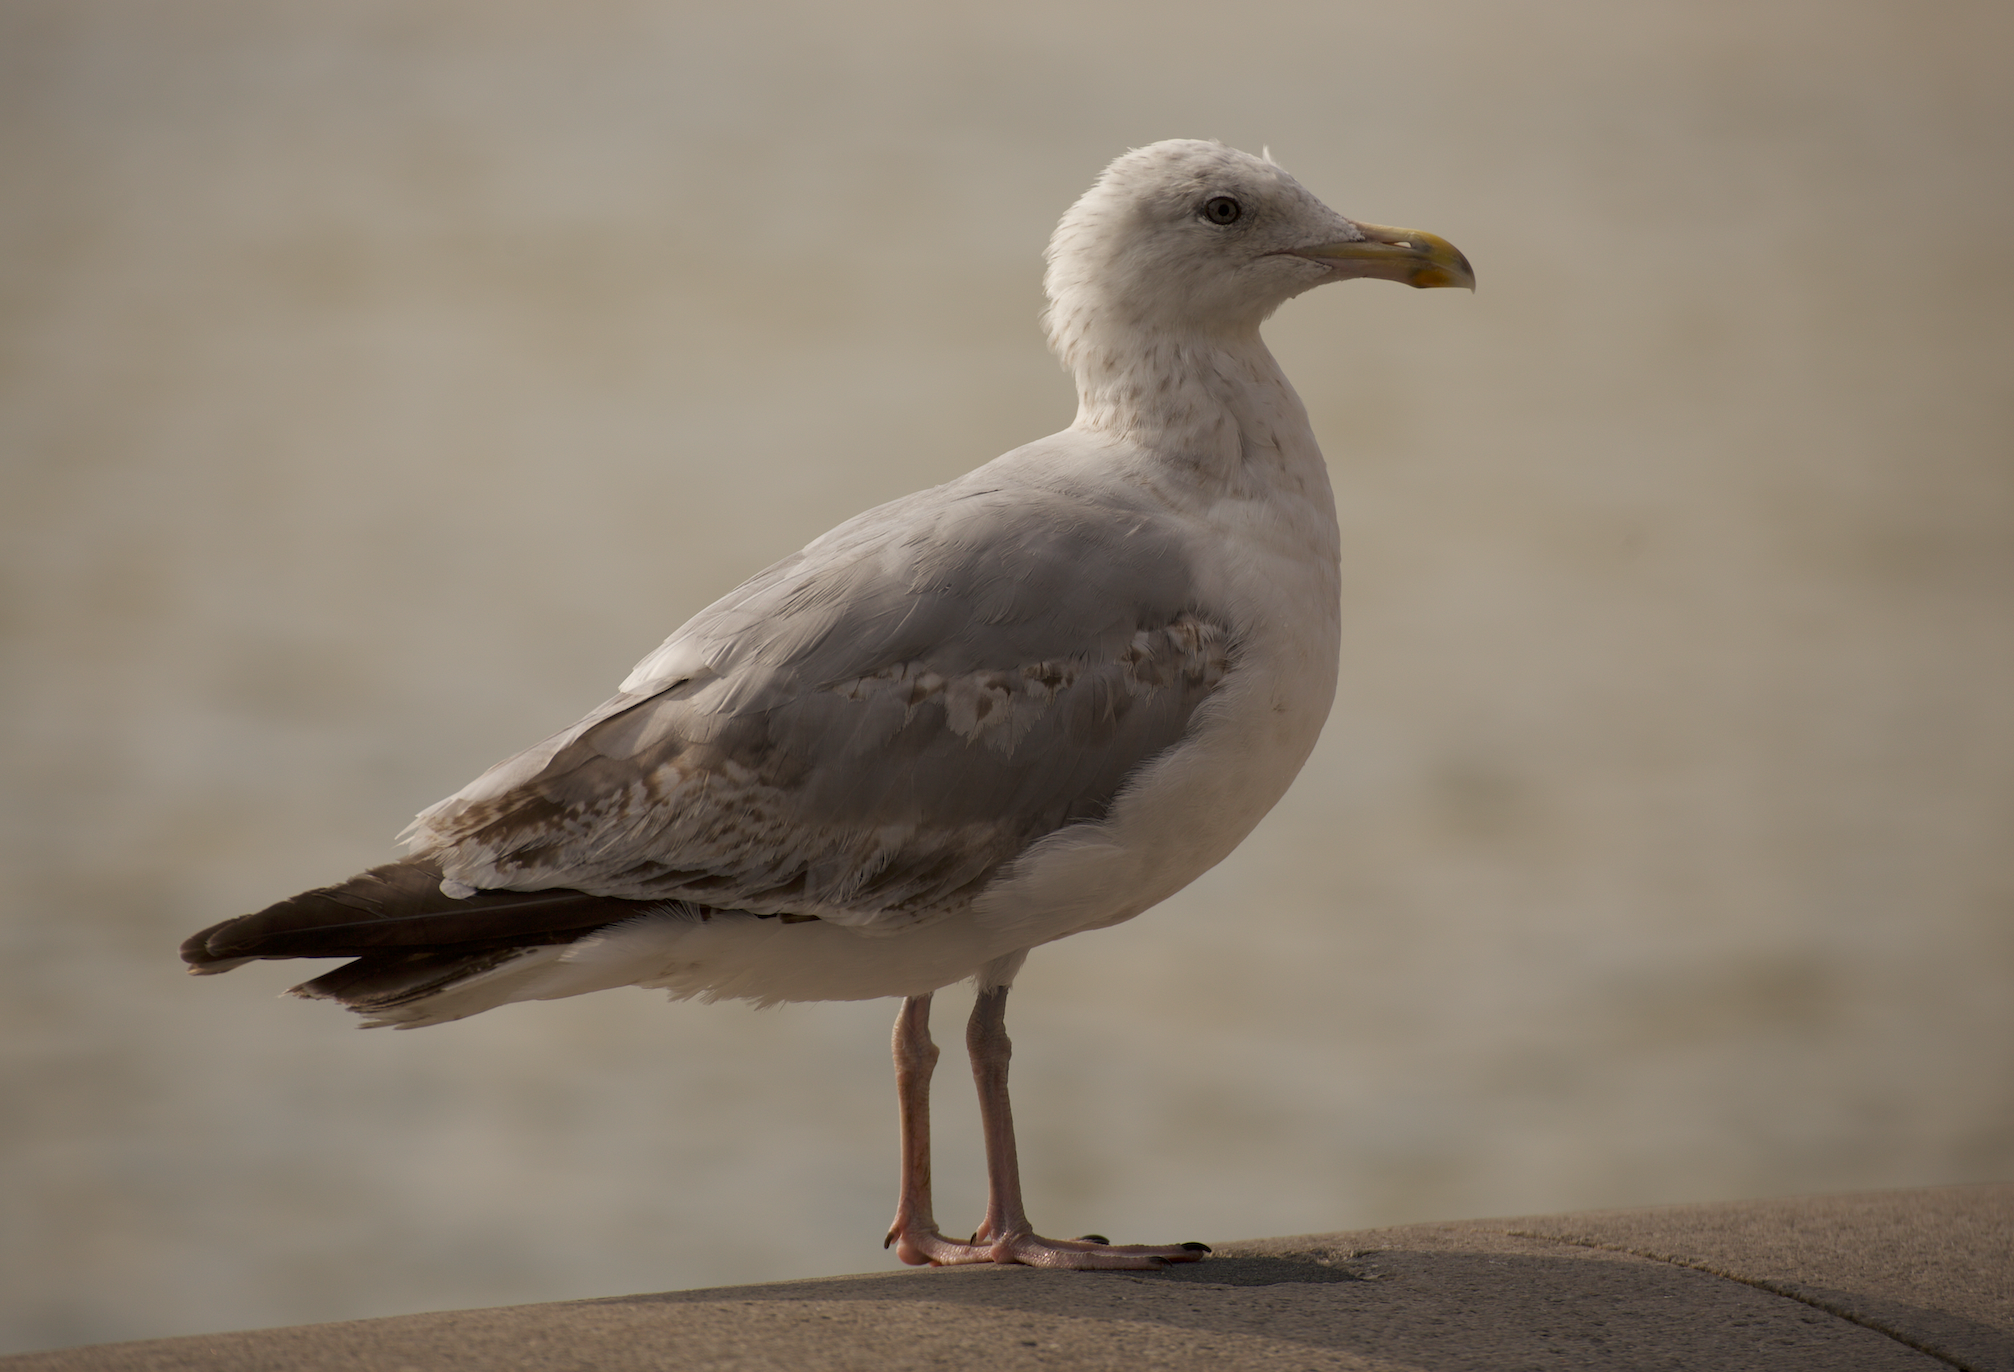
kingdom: Animalia
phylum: Chordata
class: Aves
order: Charadriiformes
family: Laridae
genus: Larus
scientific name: Larus argentatus
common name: Herring gull
